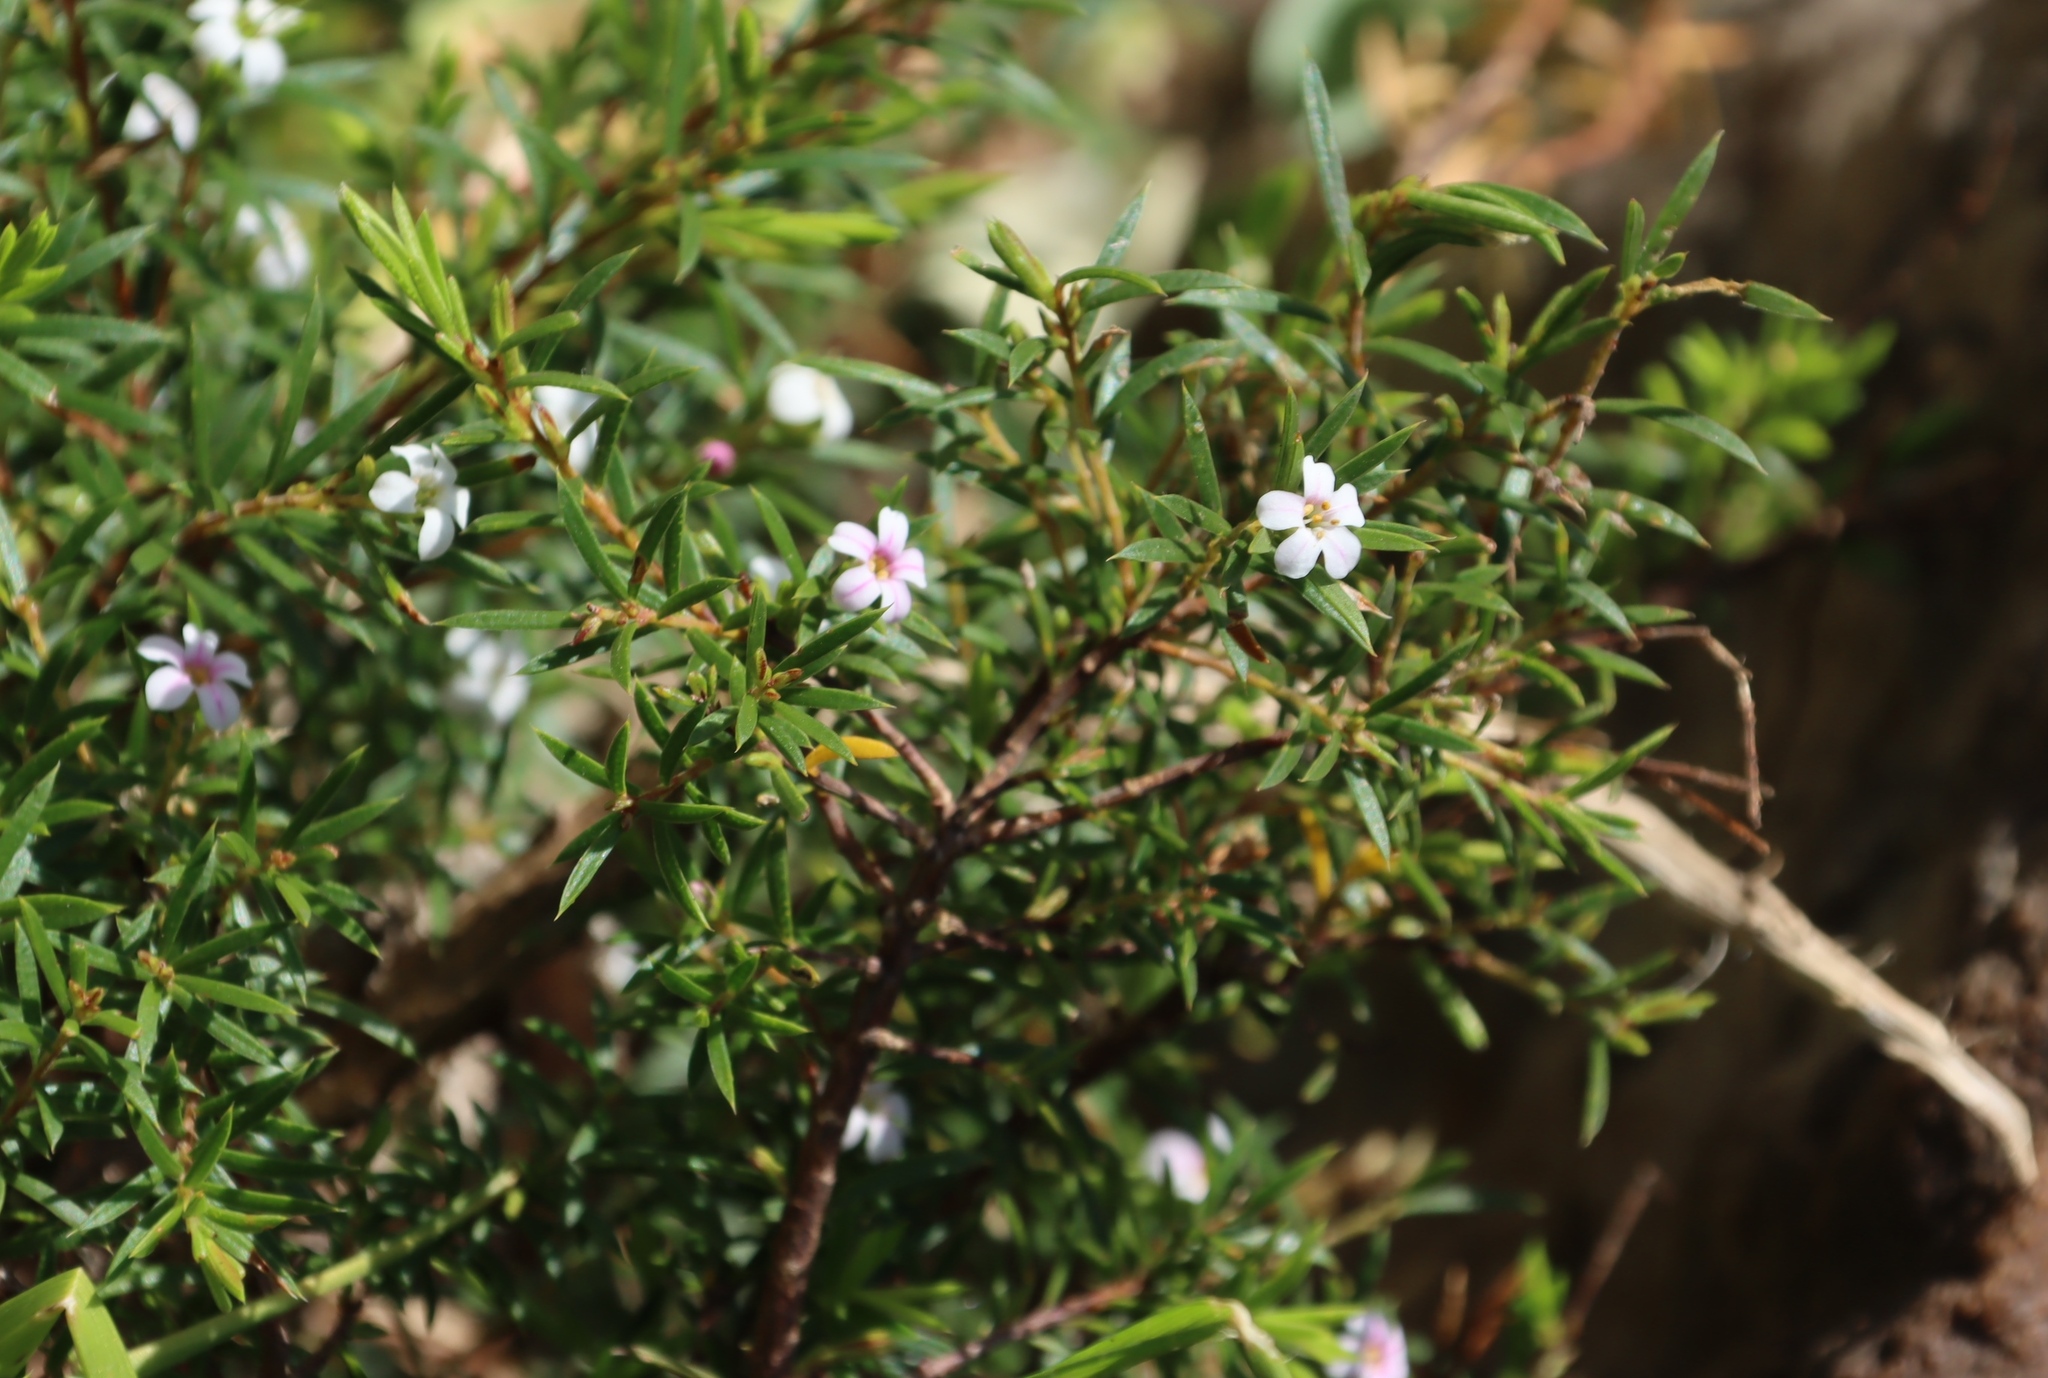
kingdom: Plantae
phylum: Tracheophyta
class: Magnoliopsida
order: Sapindales
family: Rutaceae
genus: Coleonema
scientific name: Coleonema album
